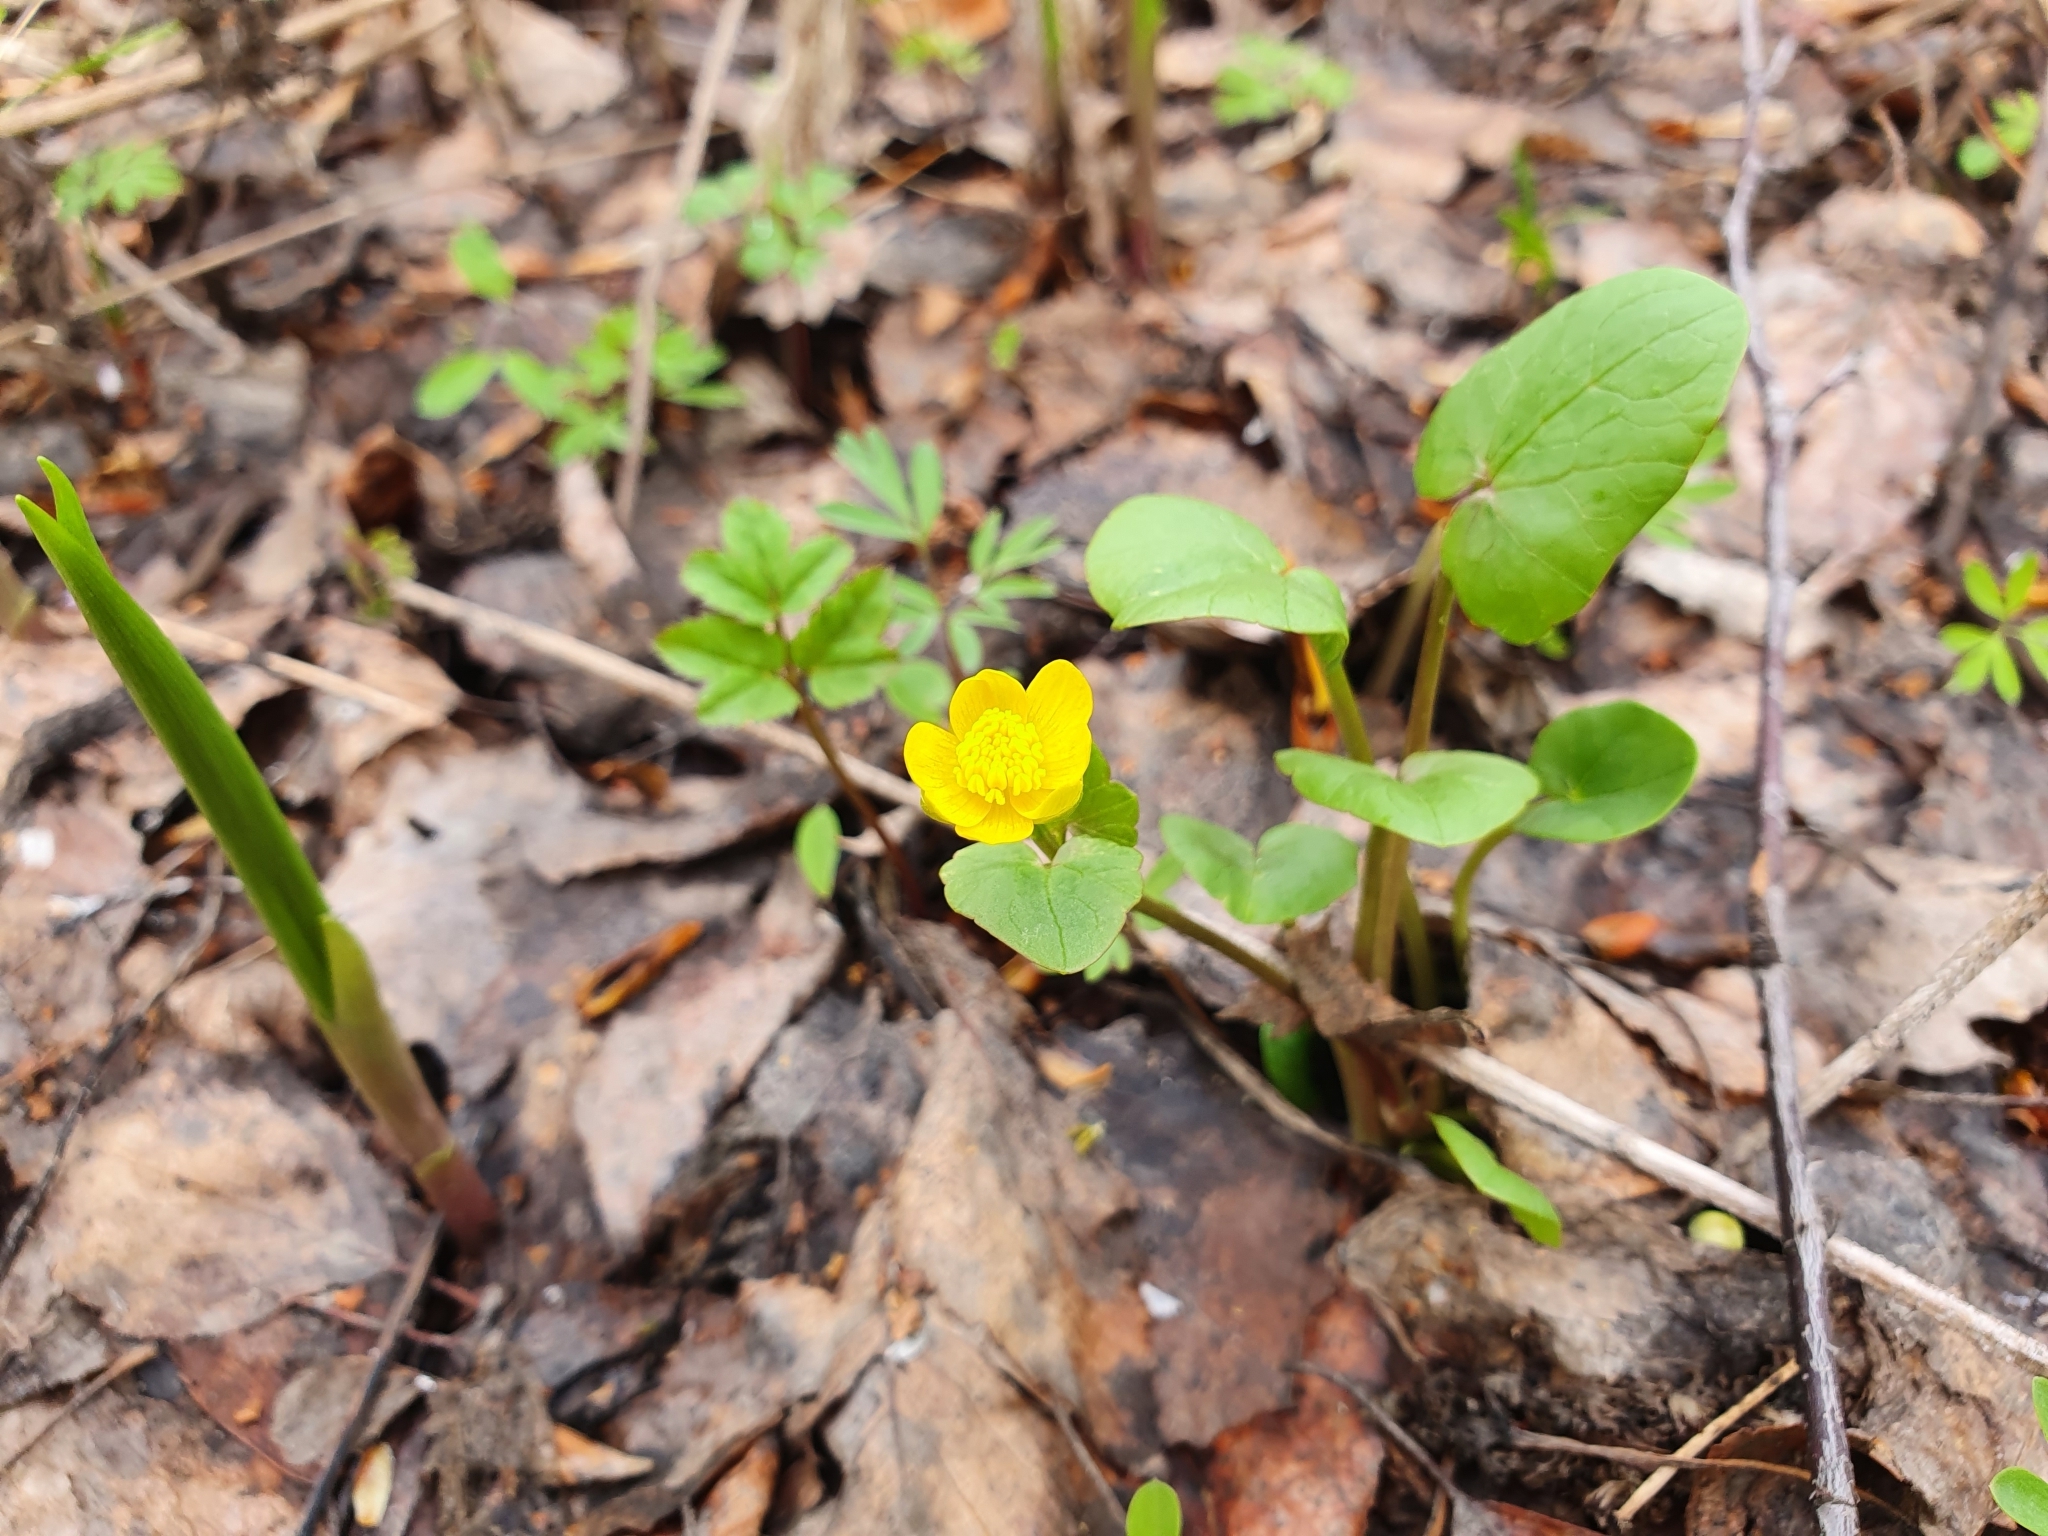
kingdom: Plantae
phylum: Tracheophyta
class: Magnoliopsida
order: Ranunculales
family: Ranunculaceae
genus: Ficaria
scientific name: Ficaria verna
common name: Lesser celandine
